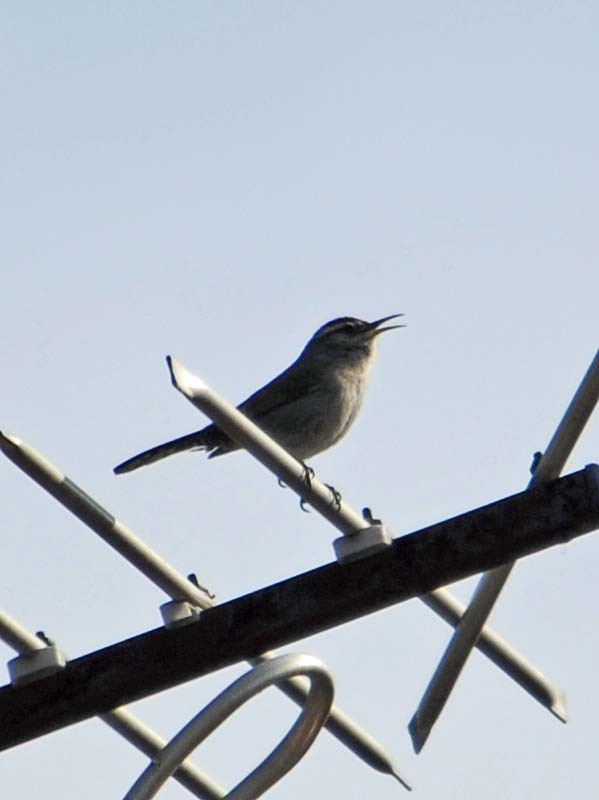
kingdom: Animalia
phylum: Chordata
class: Aves
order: Passeriformes
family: Troglodytidae
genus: Thryomanes
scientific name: Thryomanes bewickii
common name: Bewick's wren
